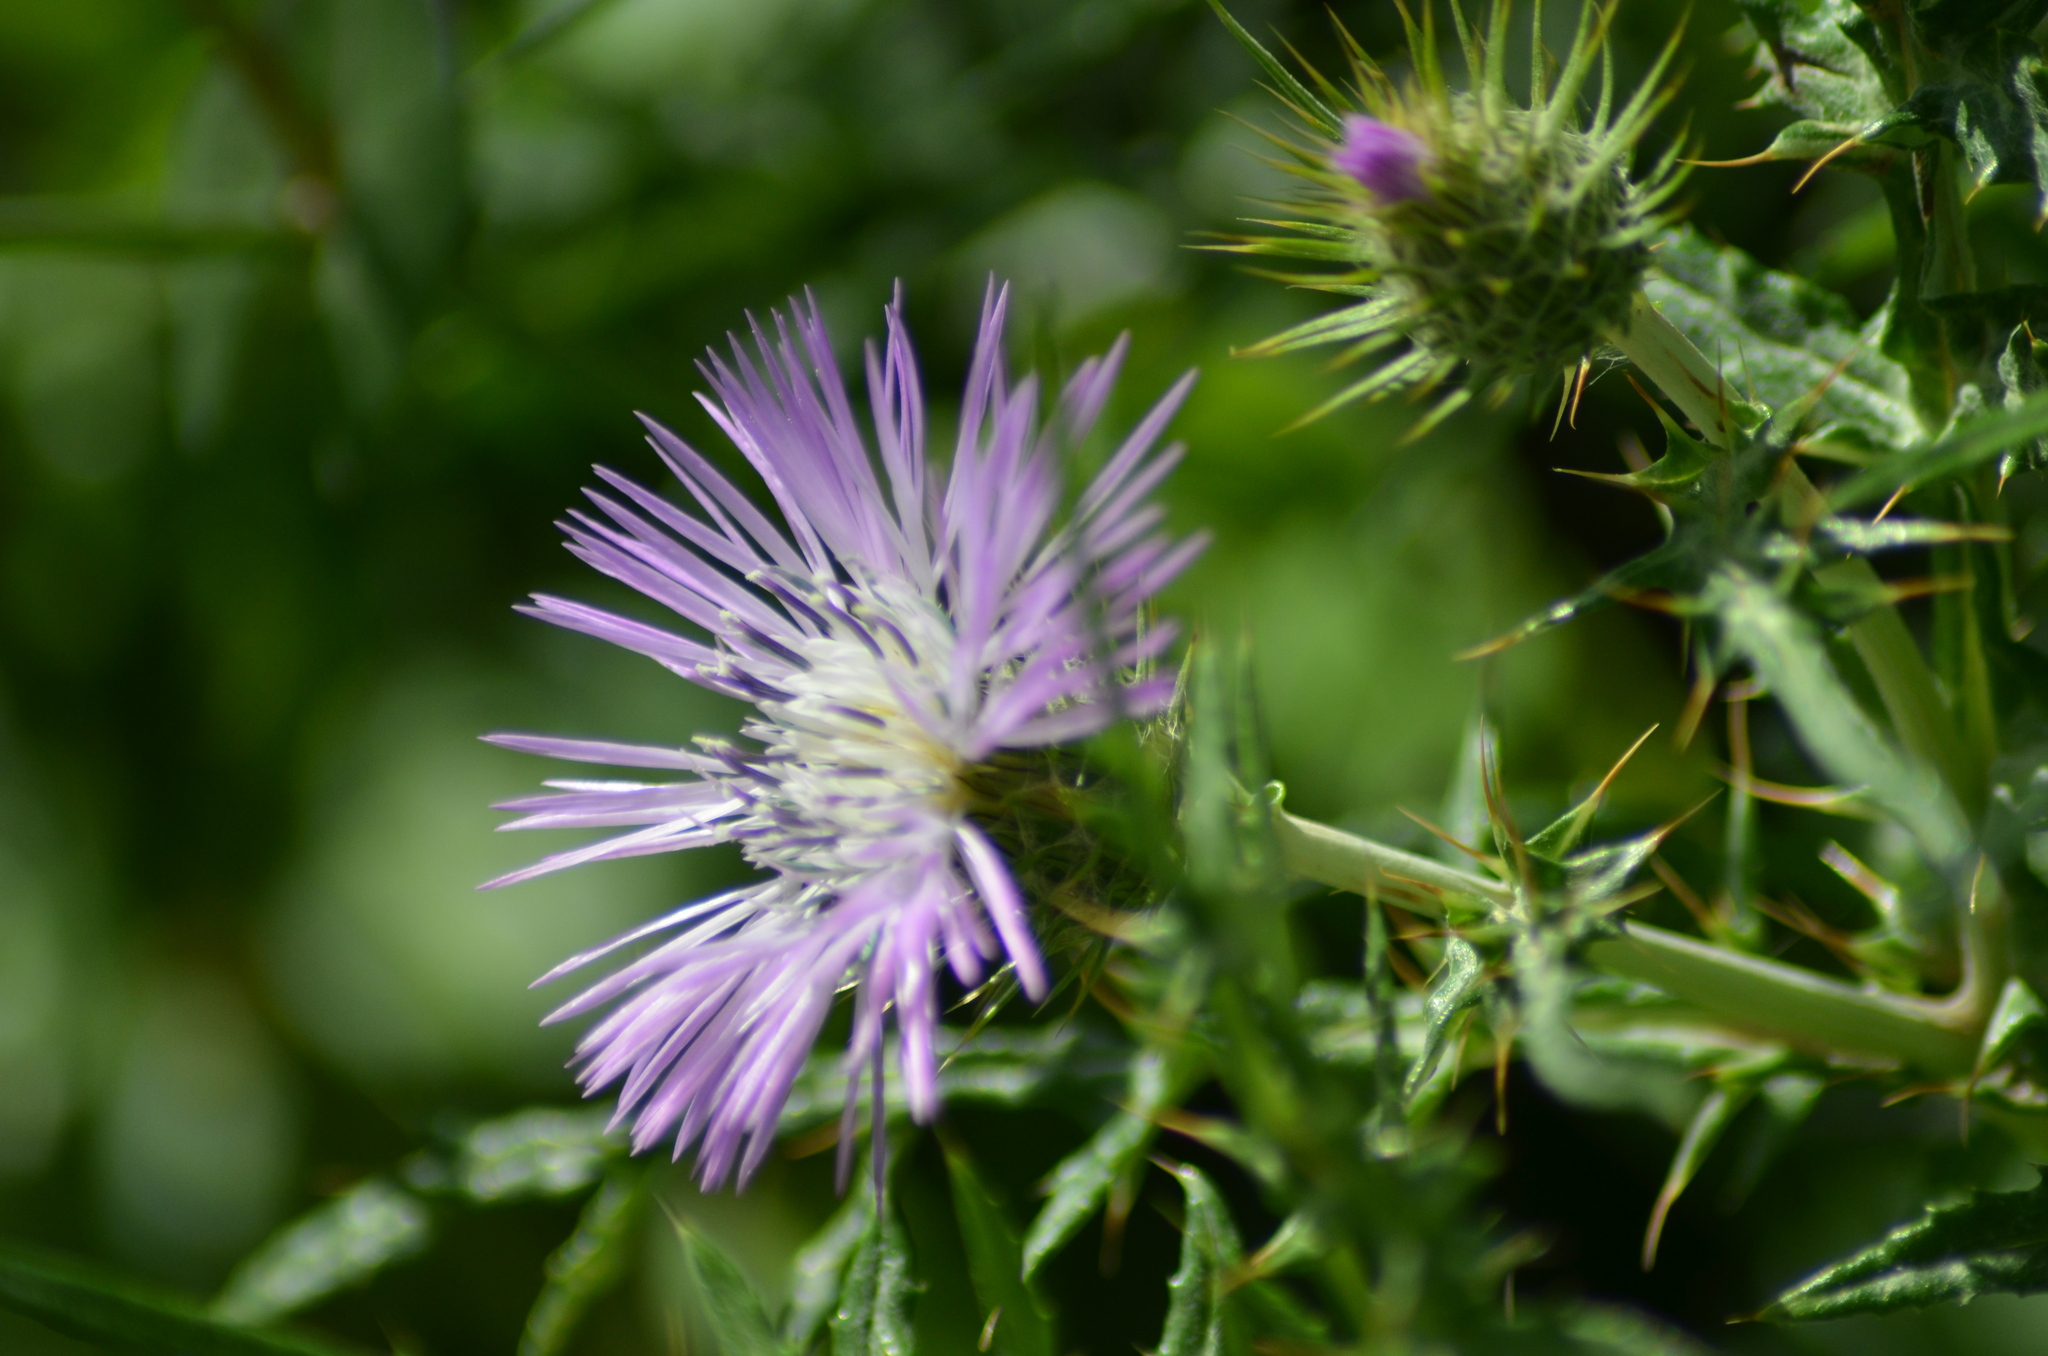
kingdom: Plantae
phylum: Tracheophyta
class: Magnoliopsida
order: Asterales
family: Asteraceae
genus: Galactites
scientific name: Galactites tomentosa
